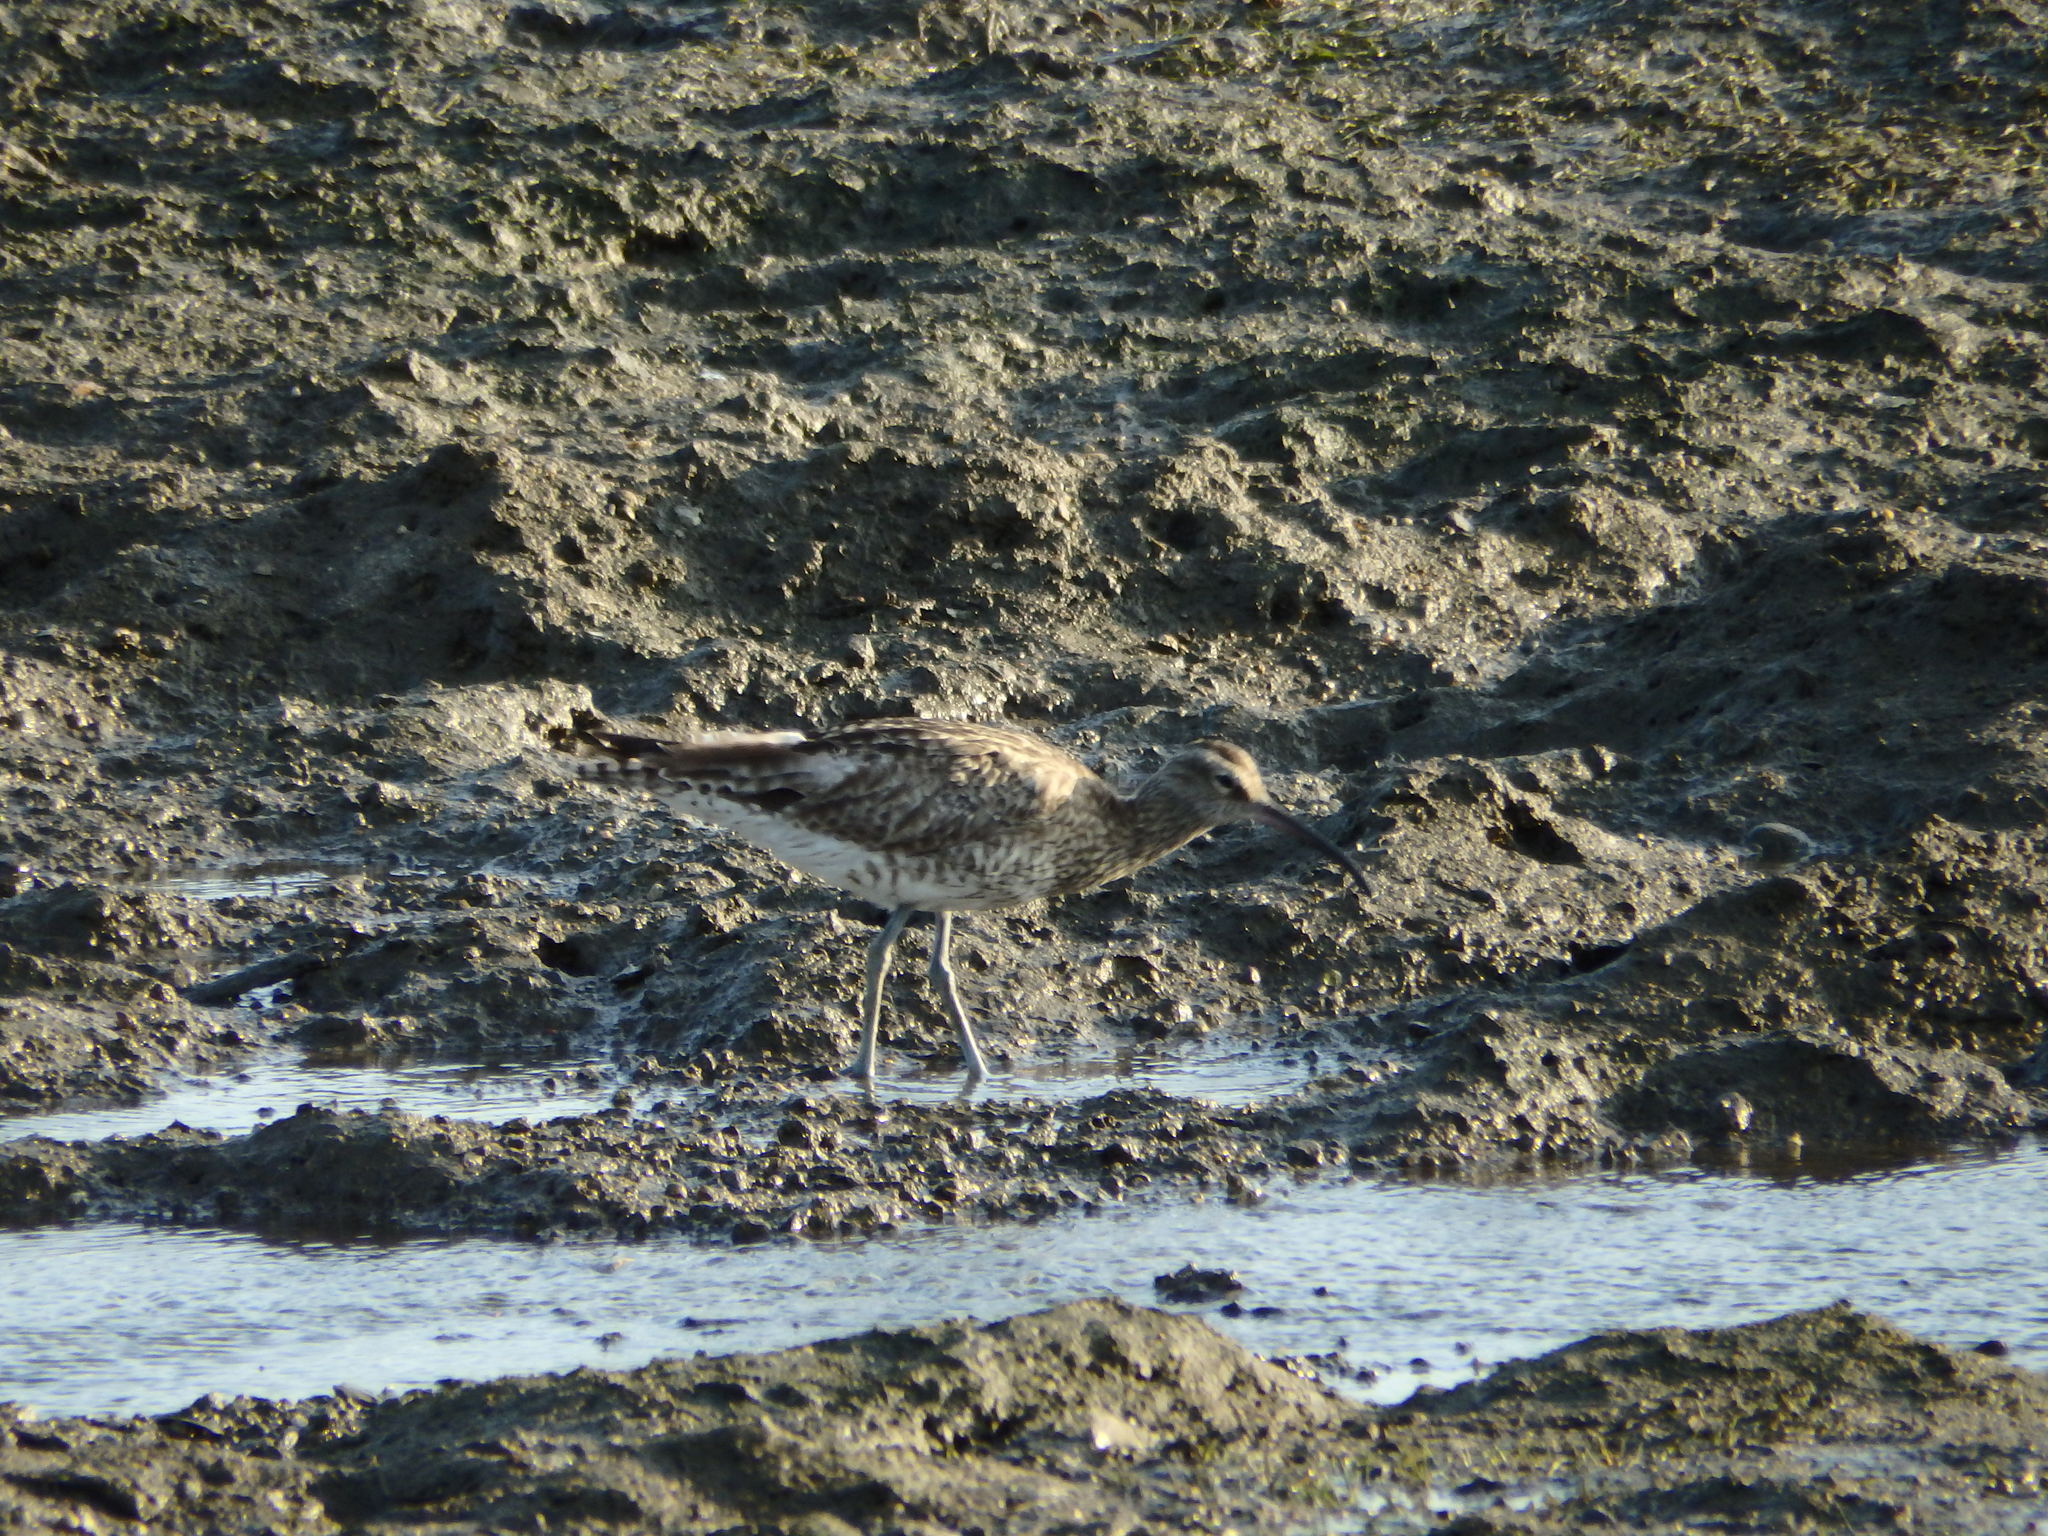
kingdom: Animalia
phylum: Chordata
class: Aves
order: Charadriiformes
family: Scolopacidae
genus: Numenius
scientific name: Numenius phaeopus
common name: Whimbrel
